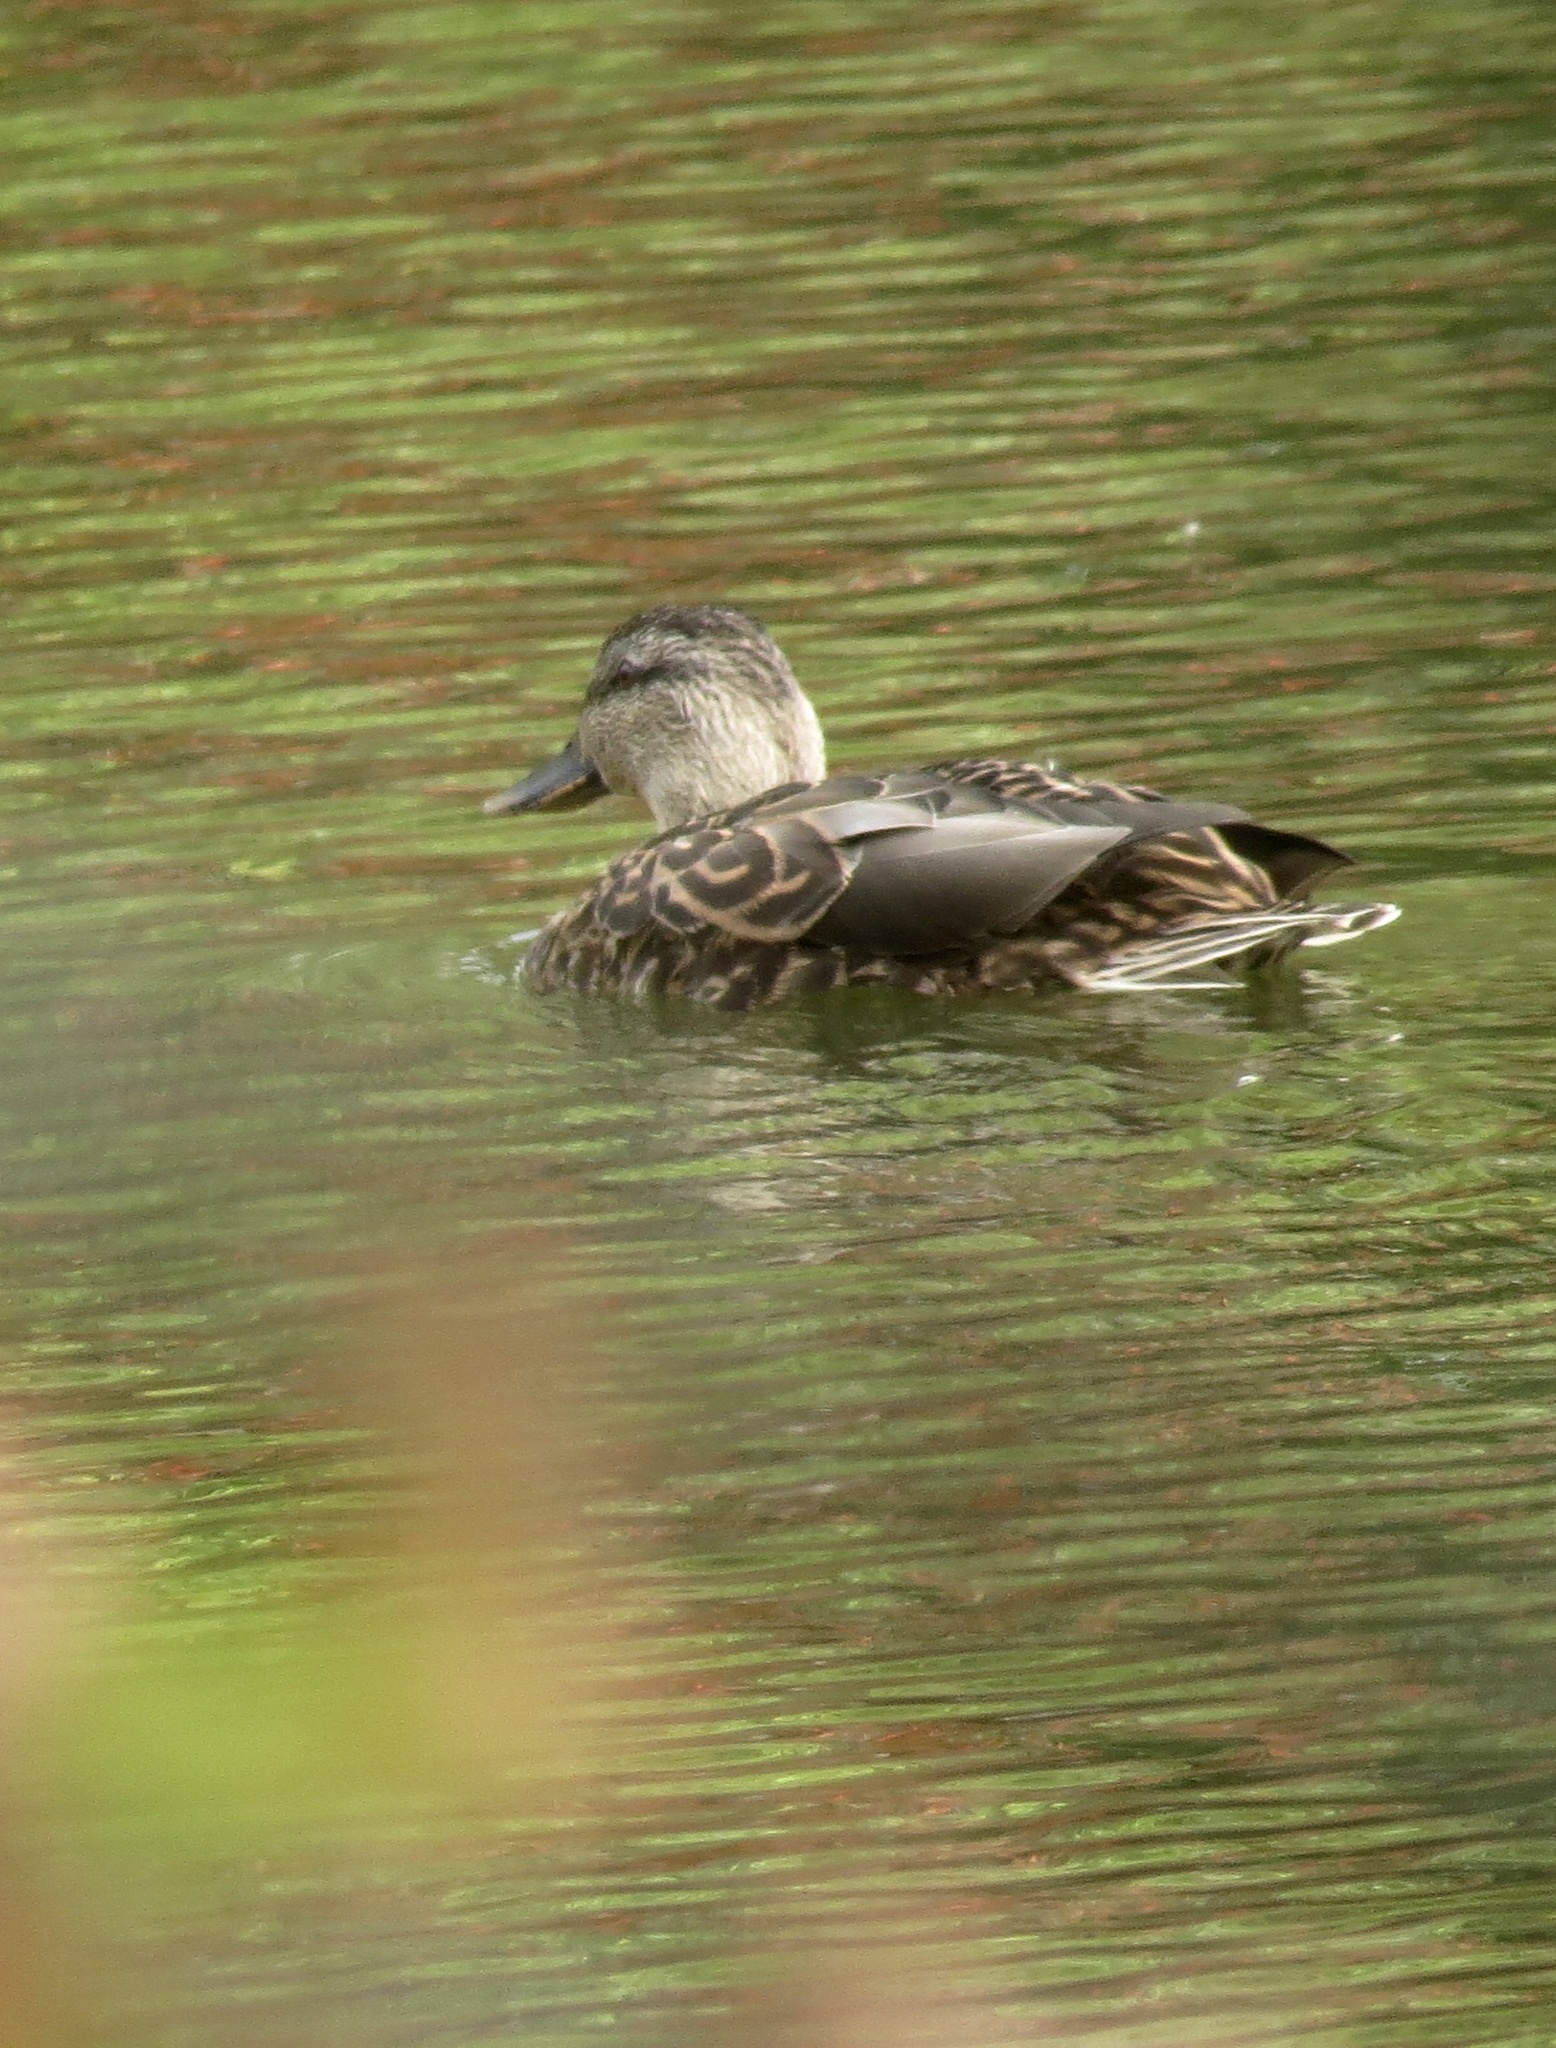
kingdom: Animalia
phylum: Chordata
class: Aves
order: Anseriformes
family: Anatidae
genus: Anas
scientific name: Anas platyrhynchos
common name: Mallard
